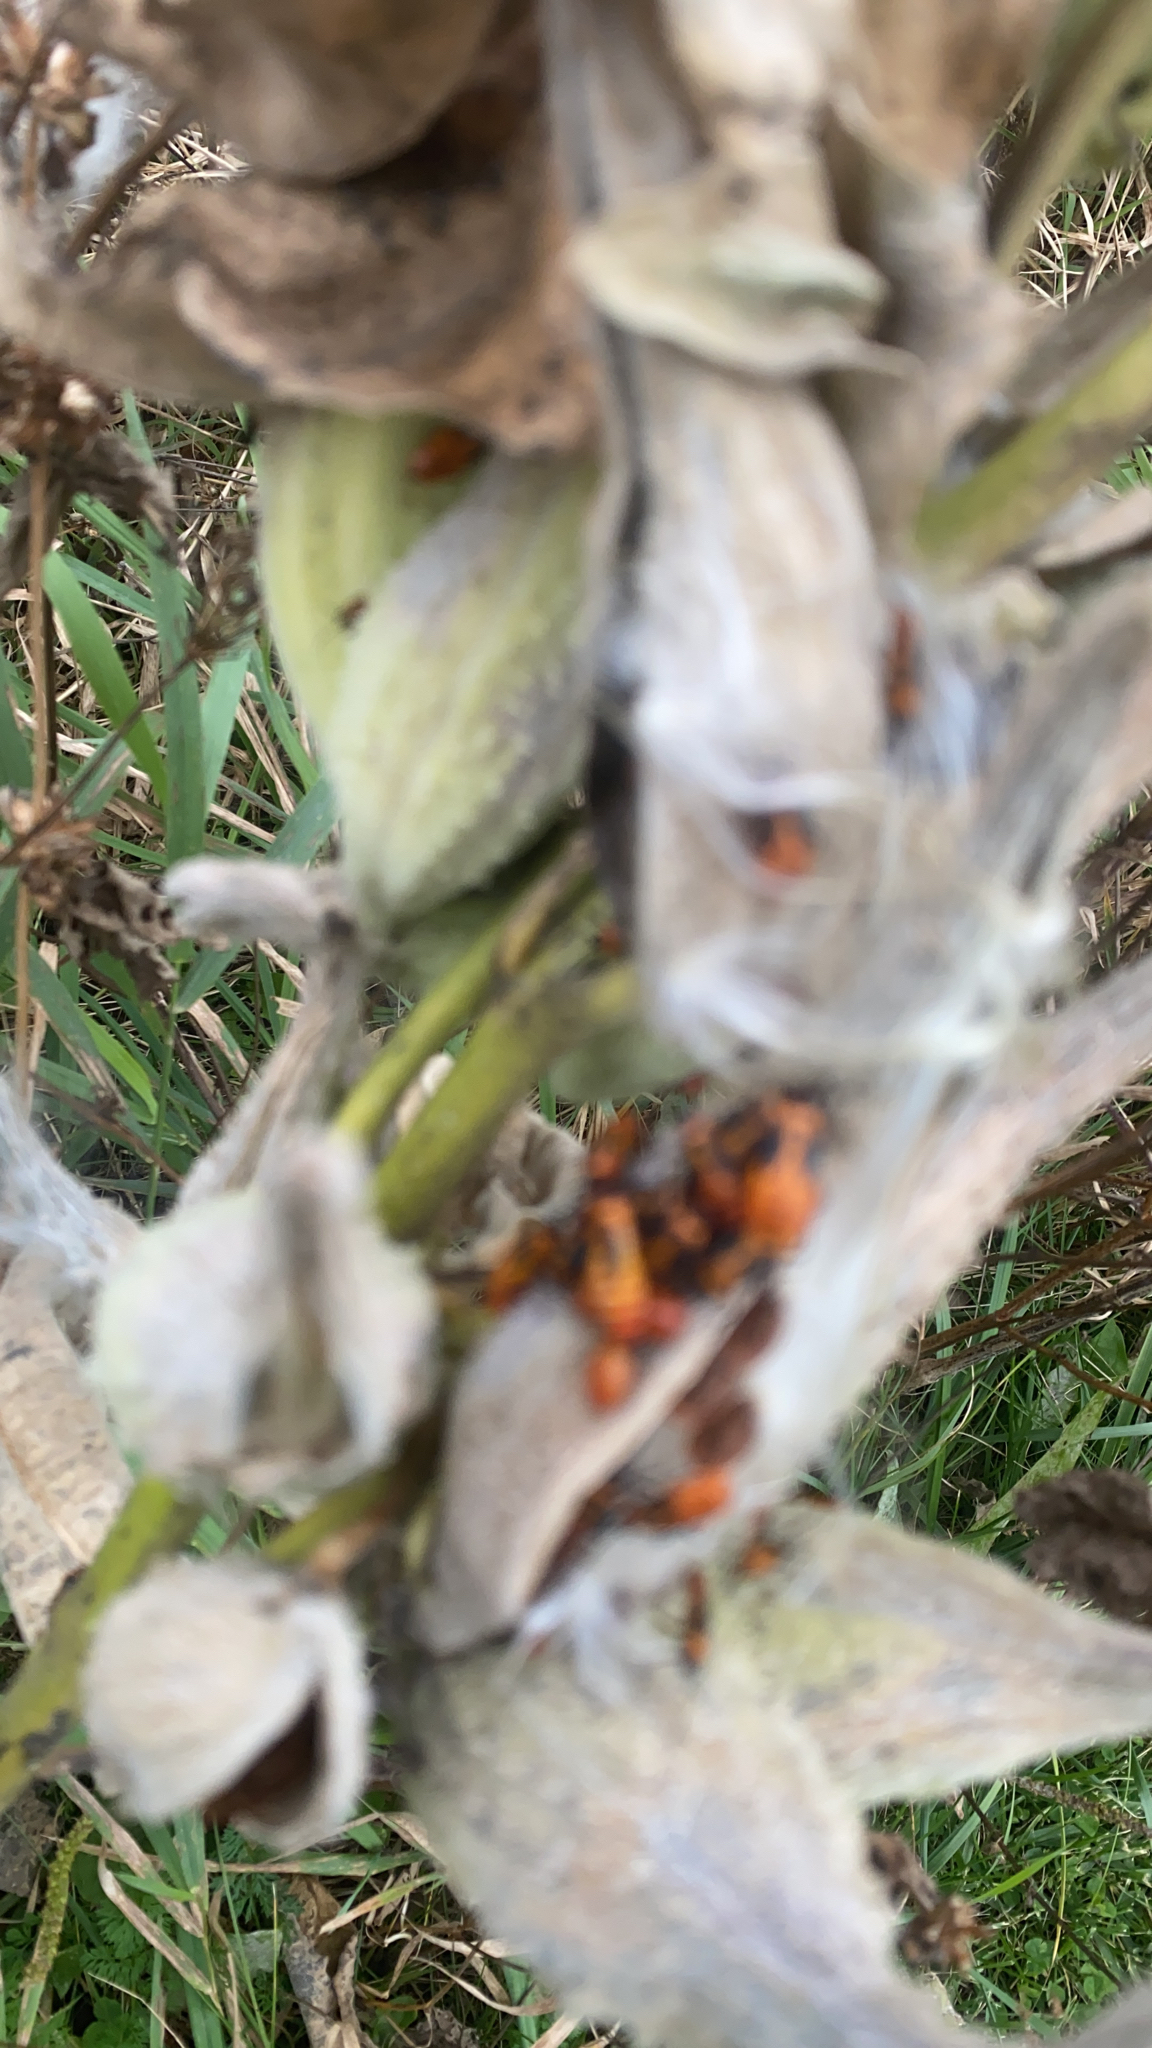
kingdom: Animalia
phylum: Arthropoda
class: Insecta
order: Hemiptera
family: Lygaeidae
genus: Oncopeltus
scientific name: Oncopeltus fasciatus
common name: Large milkweed bug
